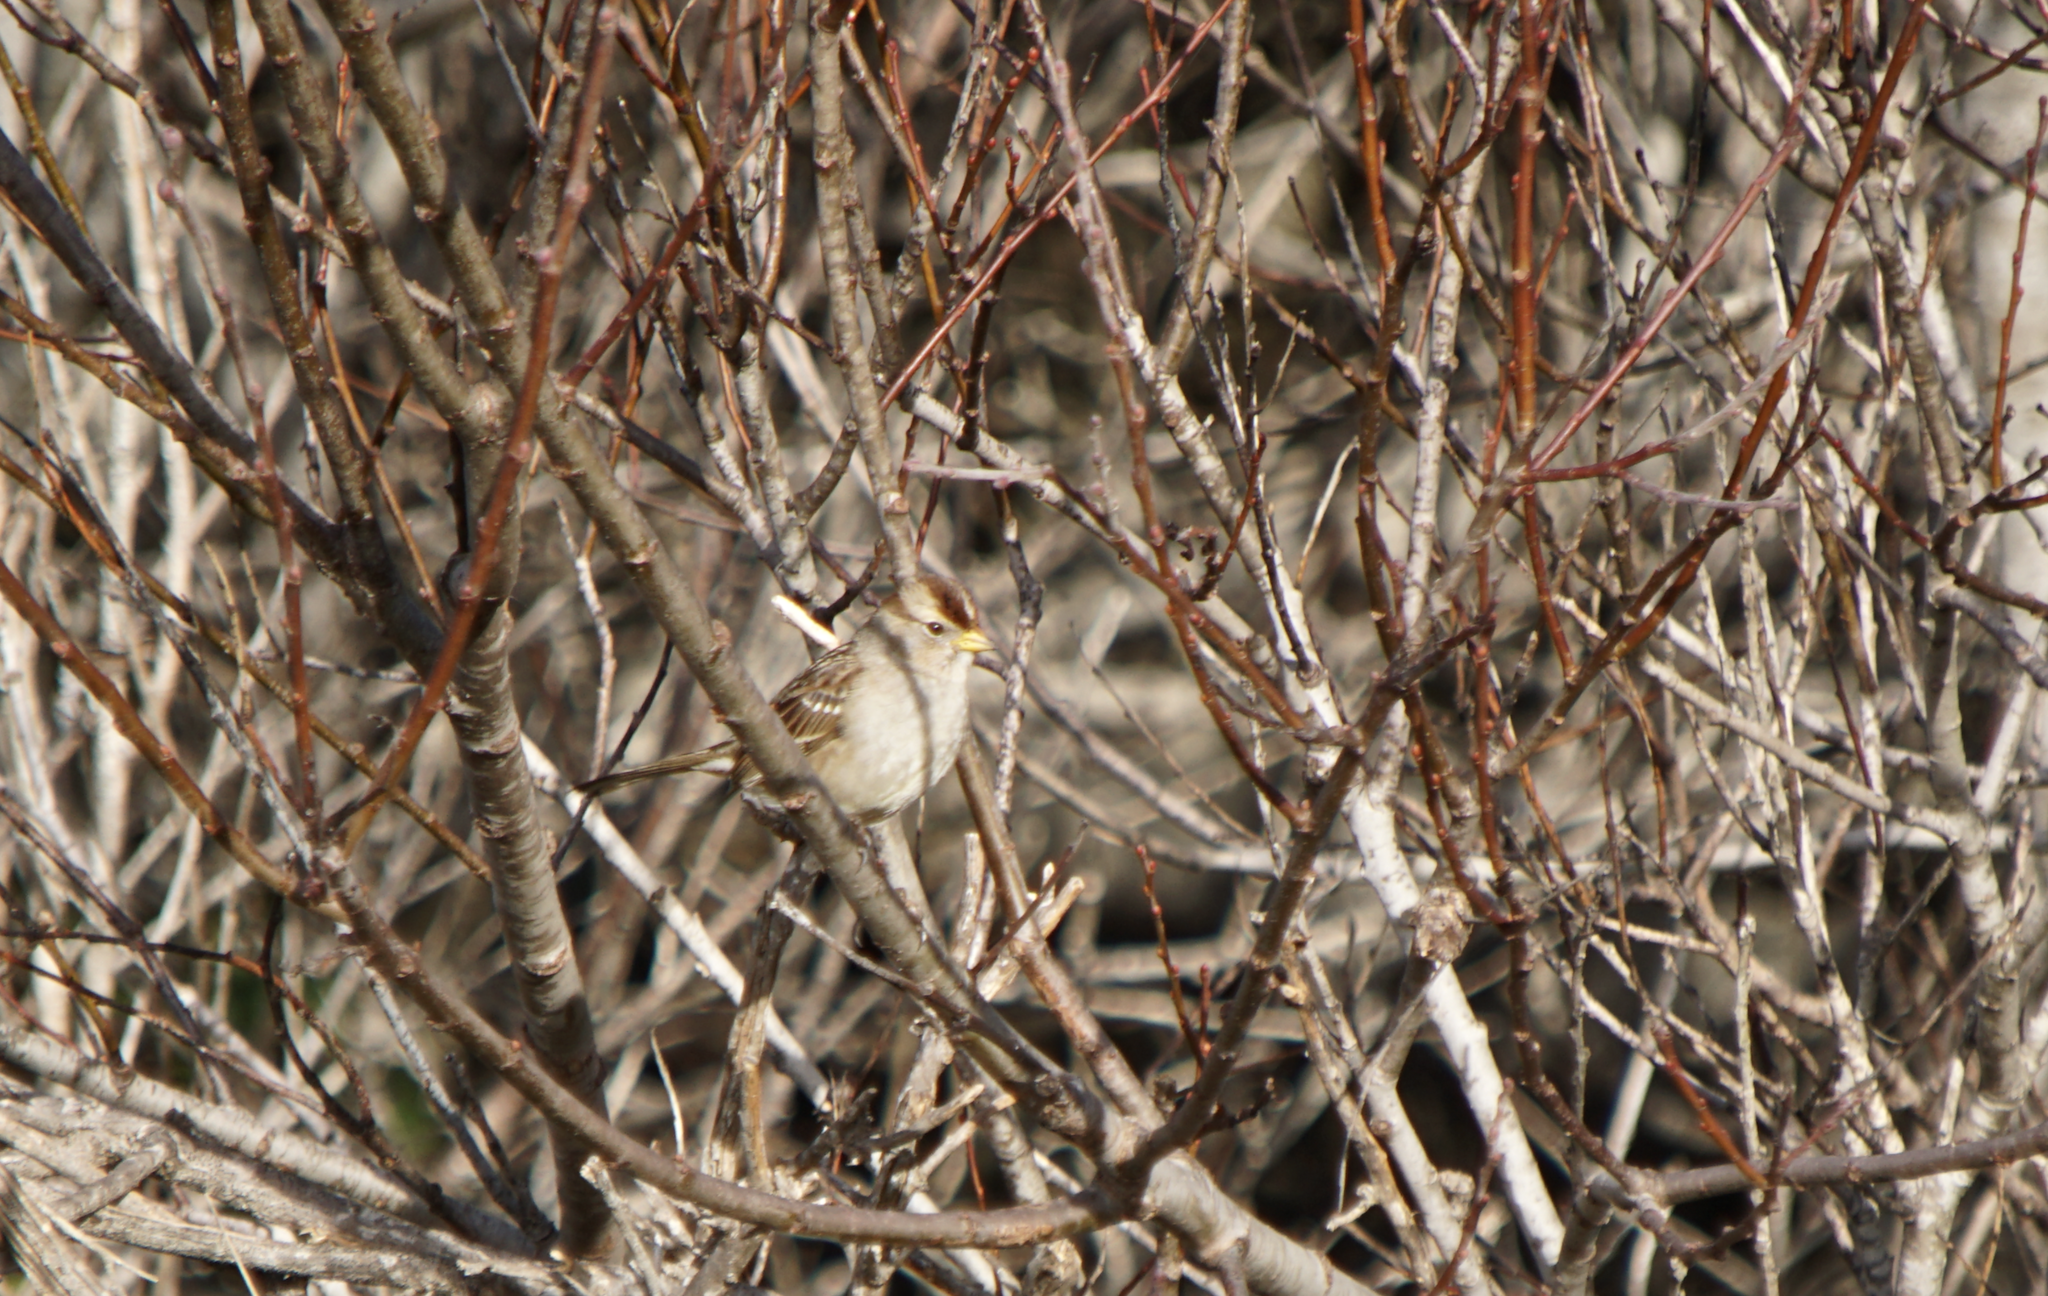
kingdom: Animalia
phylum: Chordata
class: Aves
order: Passeriformes
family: Passerellidae
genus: Zonotrichia
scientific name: Zonotrichia leucophrys
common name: White-crowned sparrow
